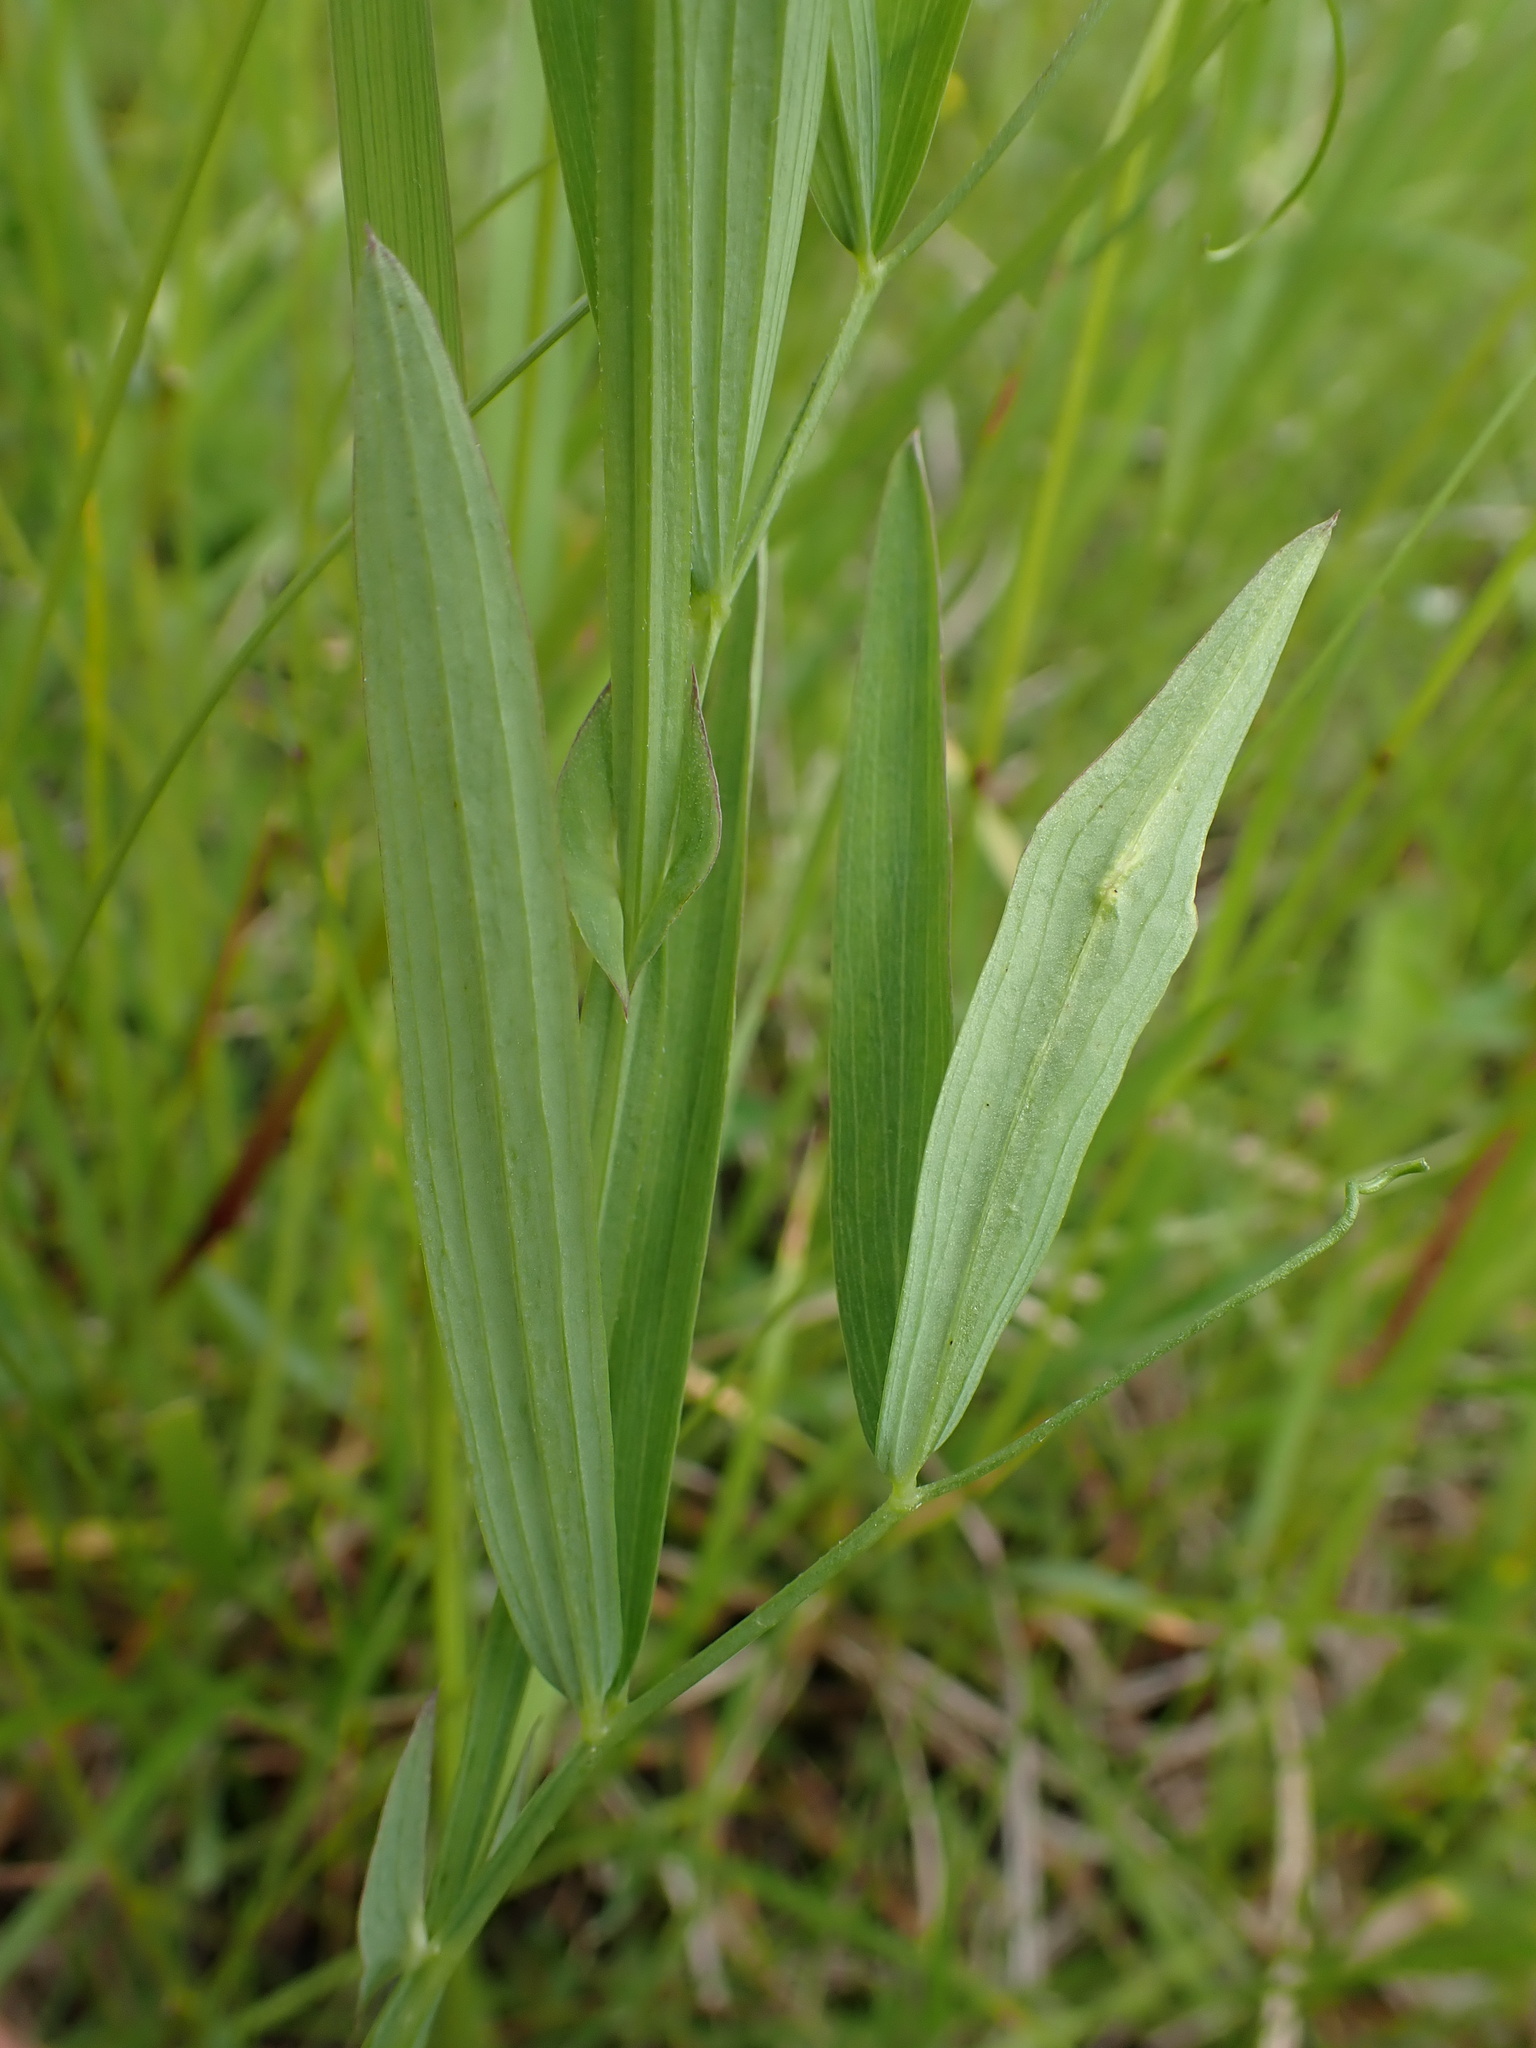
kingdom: Plantae
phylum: Tracheophyta
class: Magnoliopsida
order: Fabales
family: Fabaceae
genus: Lathyrus
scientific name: Lathyrus palustris
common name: Marsh pea
